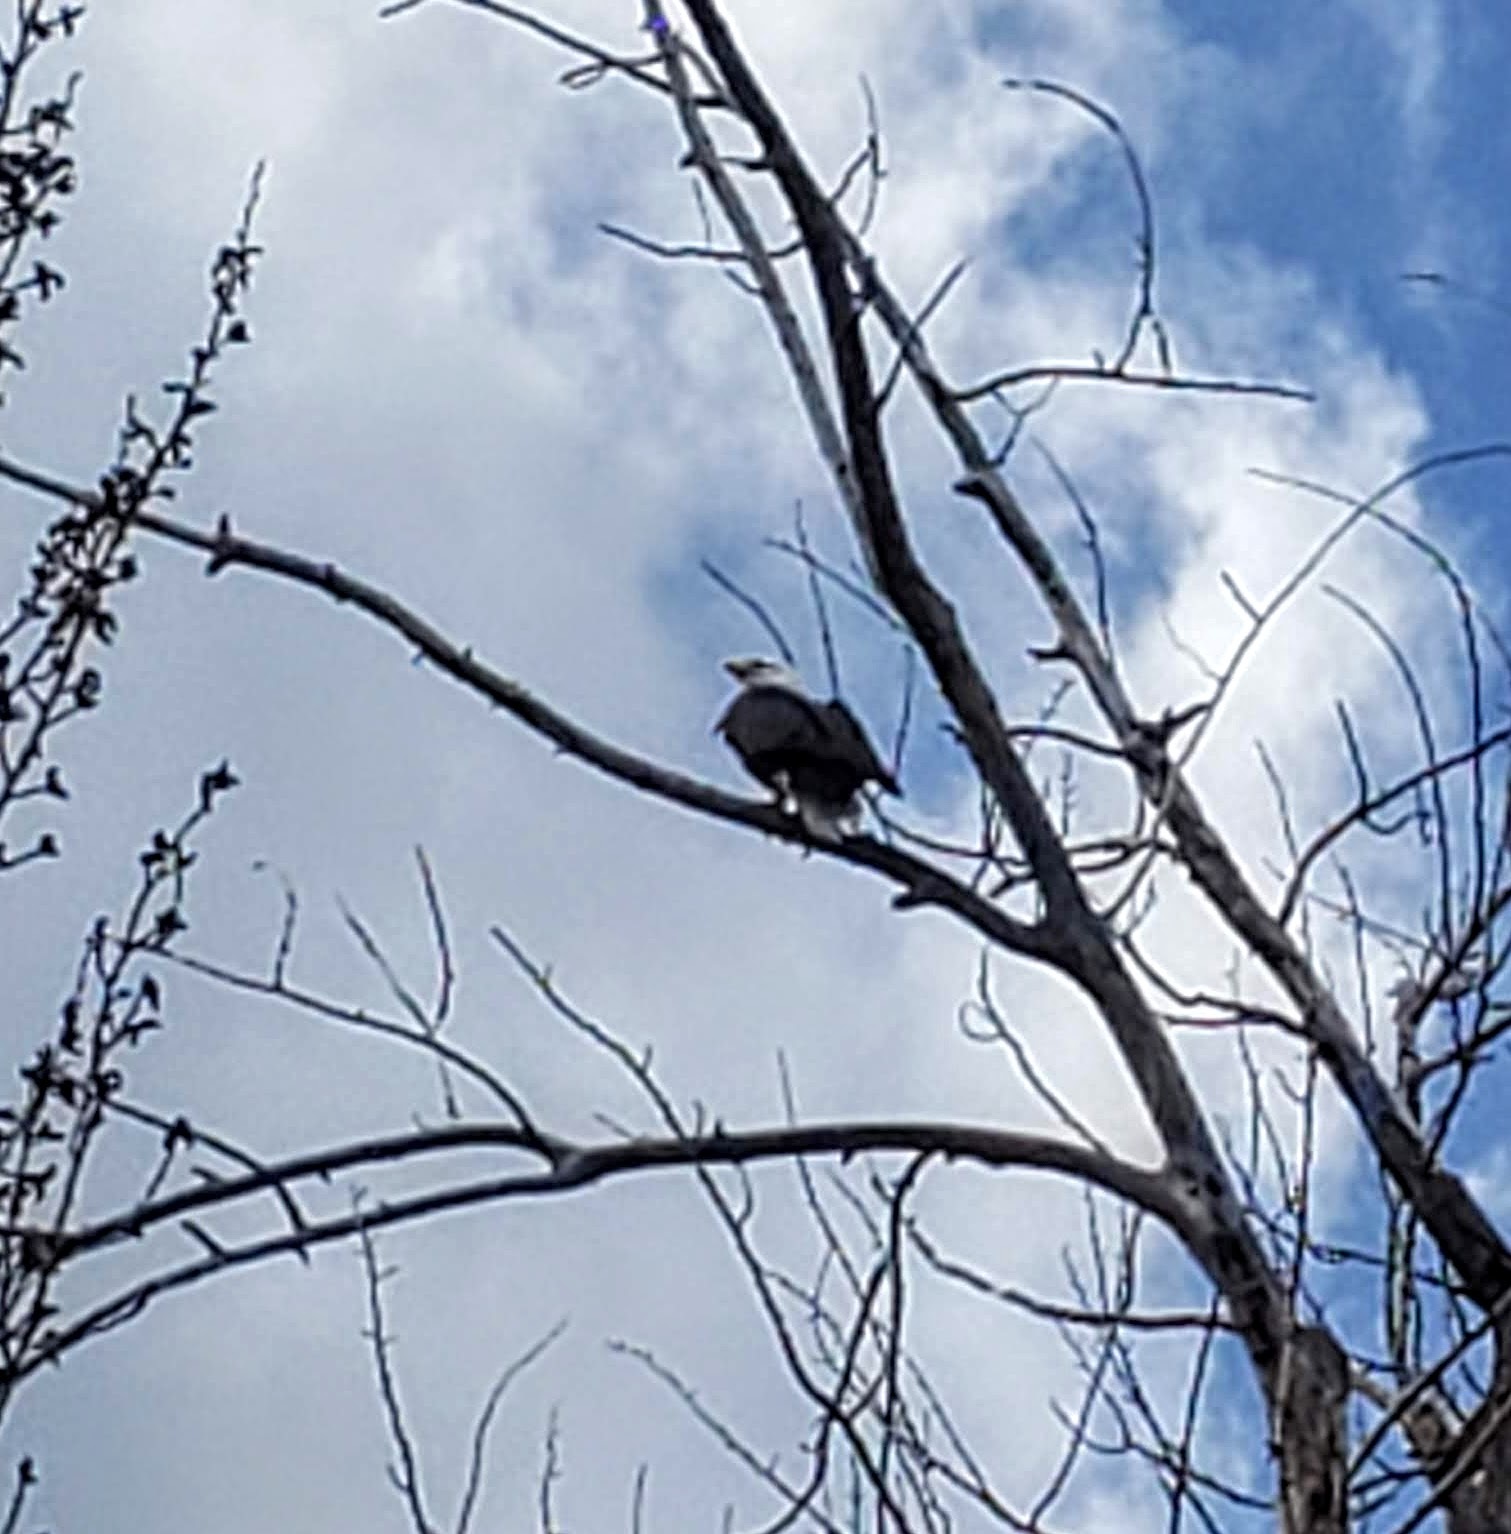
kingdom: Animalia
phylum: Chordata
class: Aves
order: Accipitriformes
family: Accipitridae
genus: Haliaeetus
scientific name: Haliaeetus leucocephalus
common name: Bald eagle
